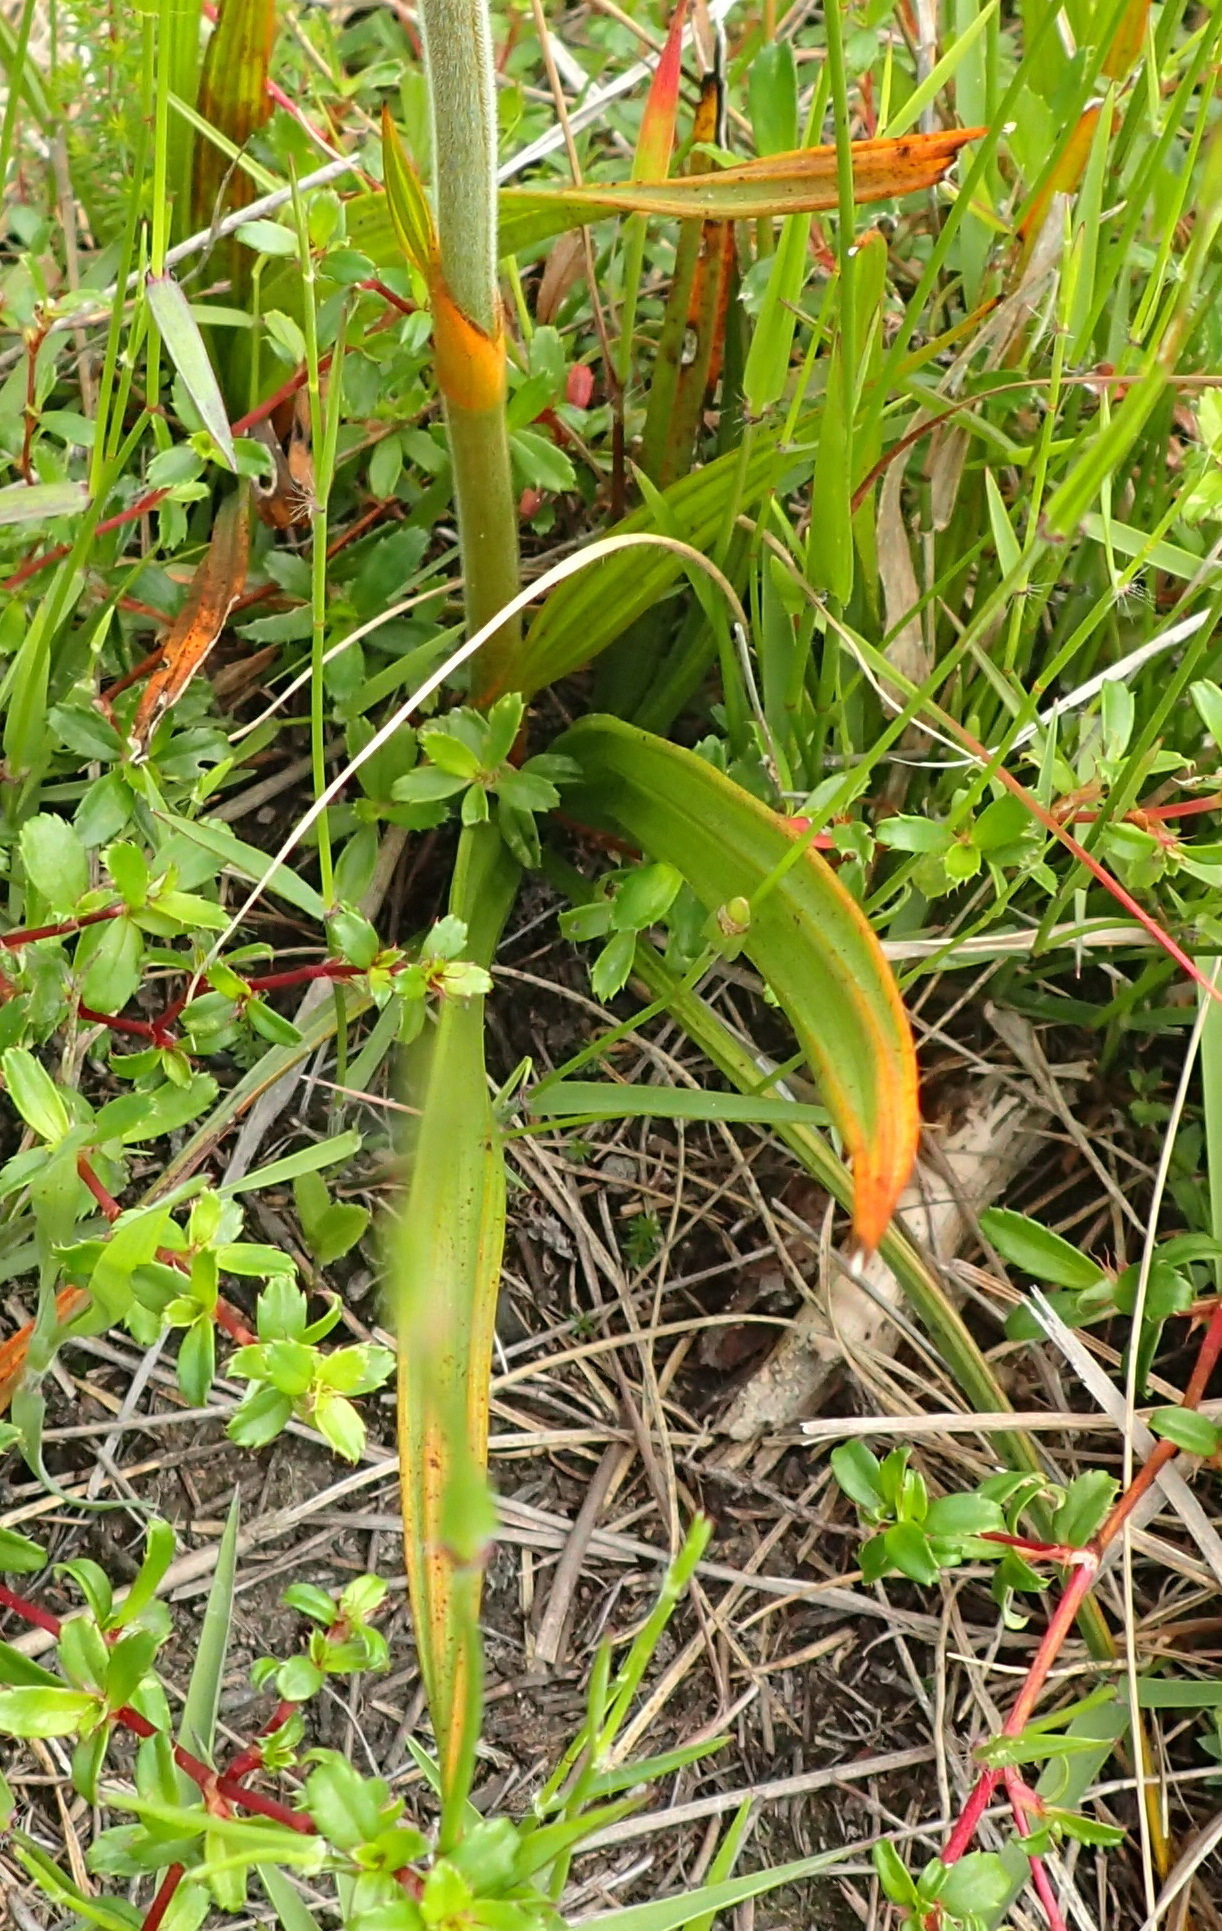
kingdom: Plantae
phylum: Tracheophyta
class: Liliopsida
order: Commelinales
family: Haemodoraceae
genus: Wachendorfia
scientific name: Wachendorfia paniculata
